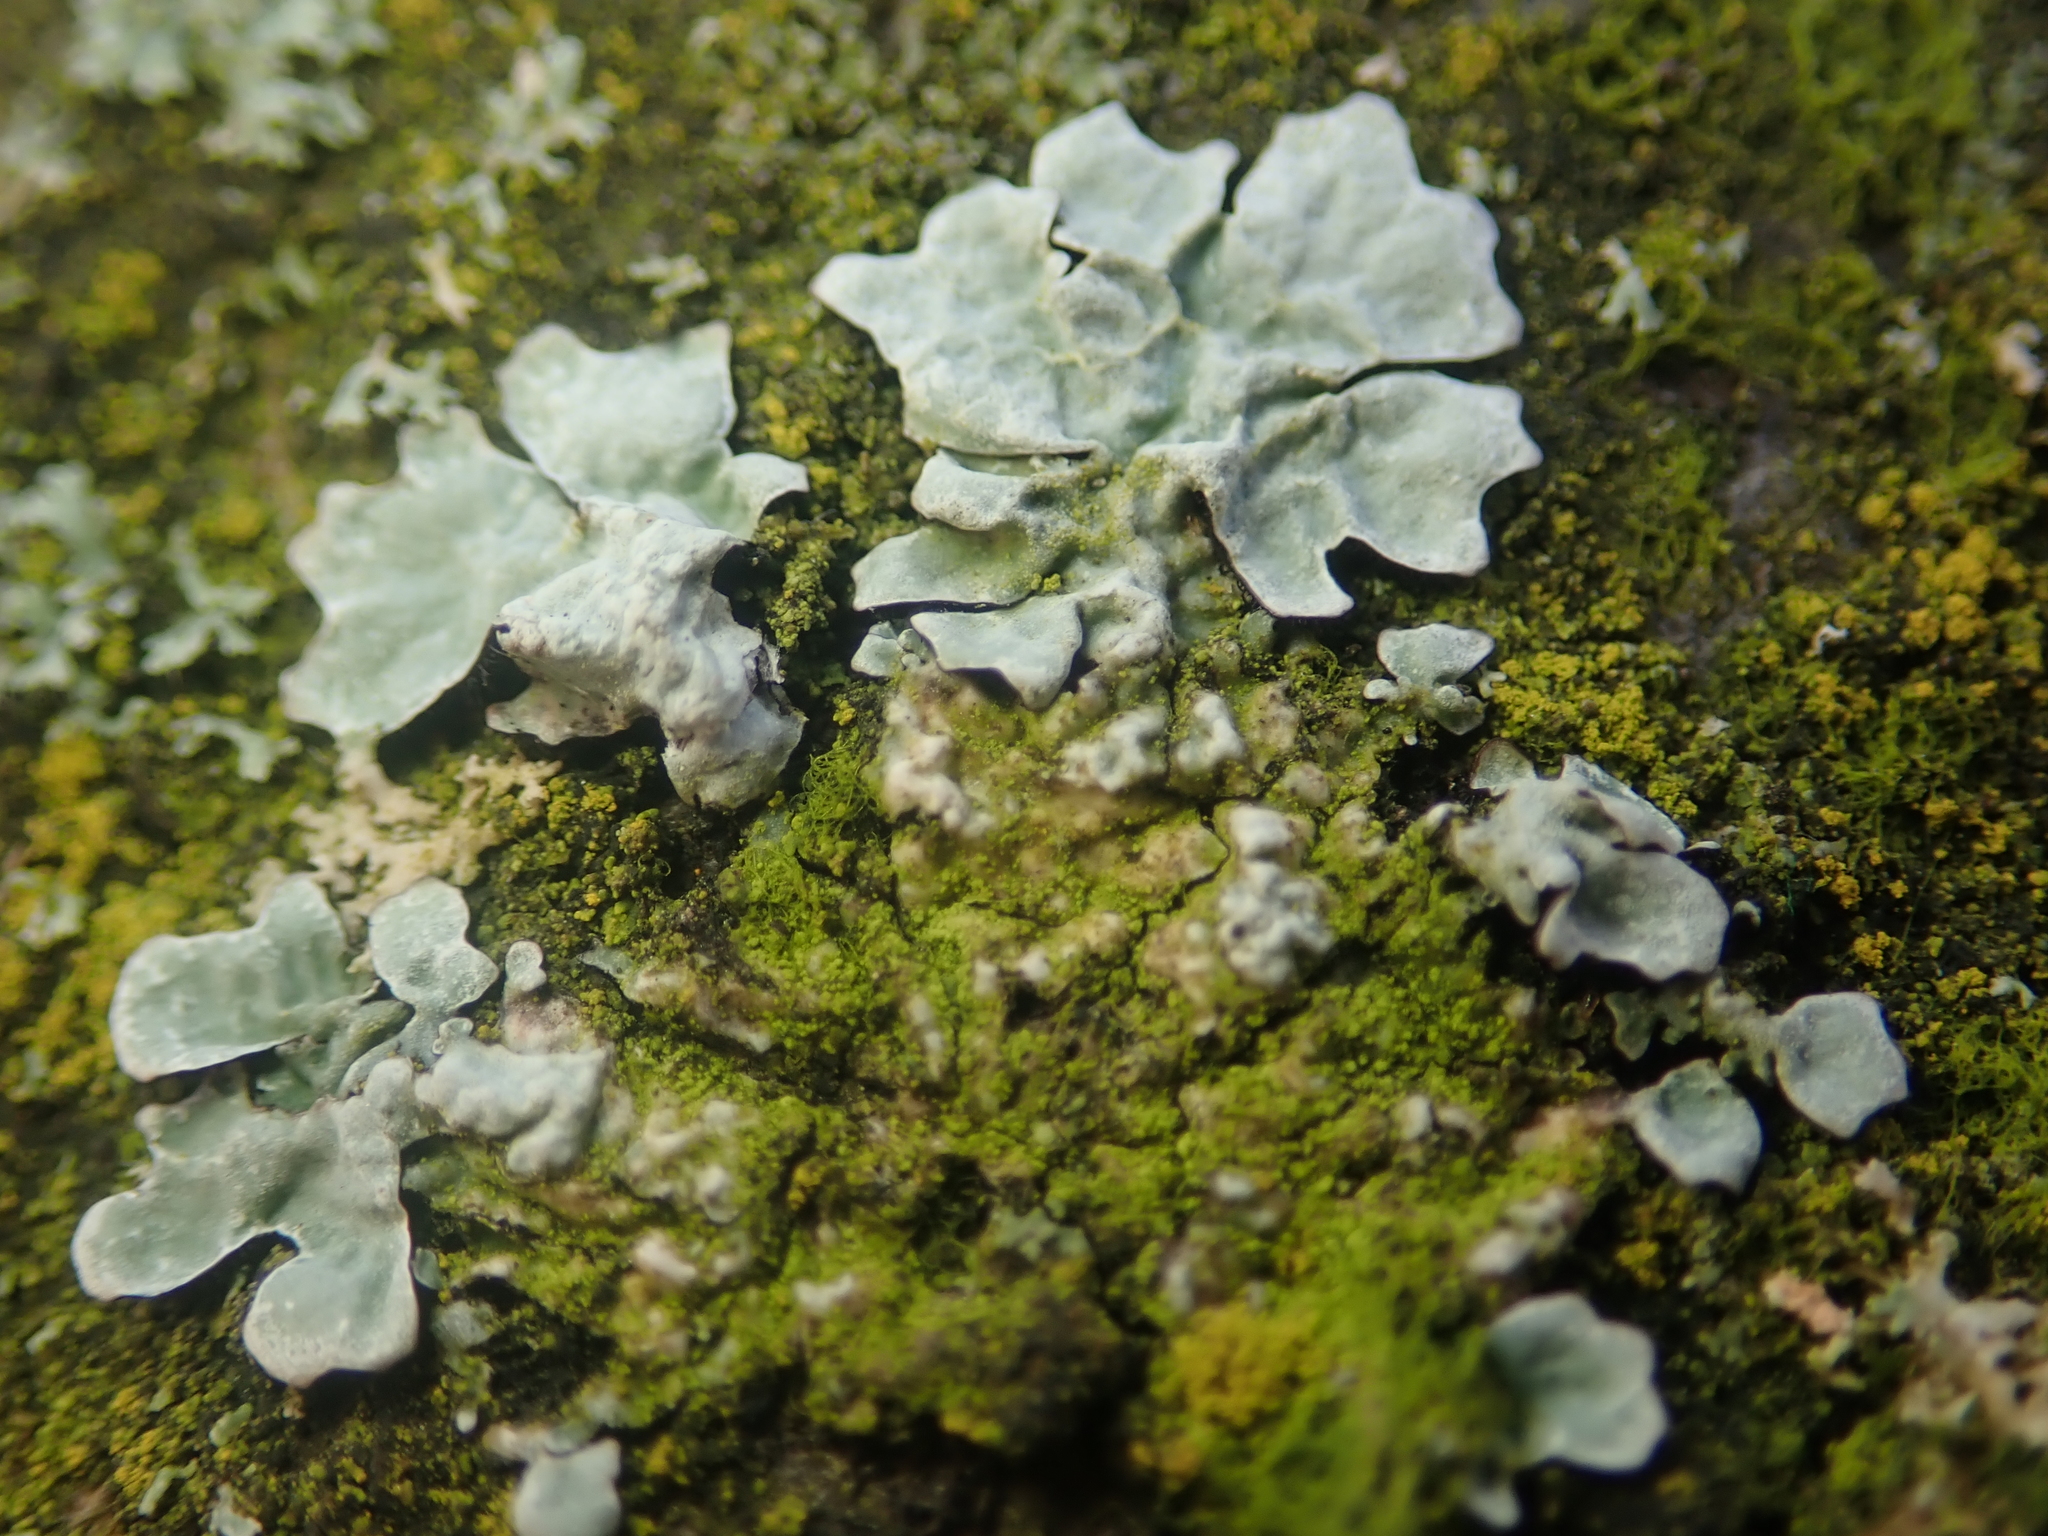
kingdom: Fungi
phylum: Ascomycota
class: Lecanoromycetes
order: Lecanorales
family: Parmeliaceae
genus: Parmelia
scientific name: Parmelia sulcata
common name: Netted shield lichen
